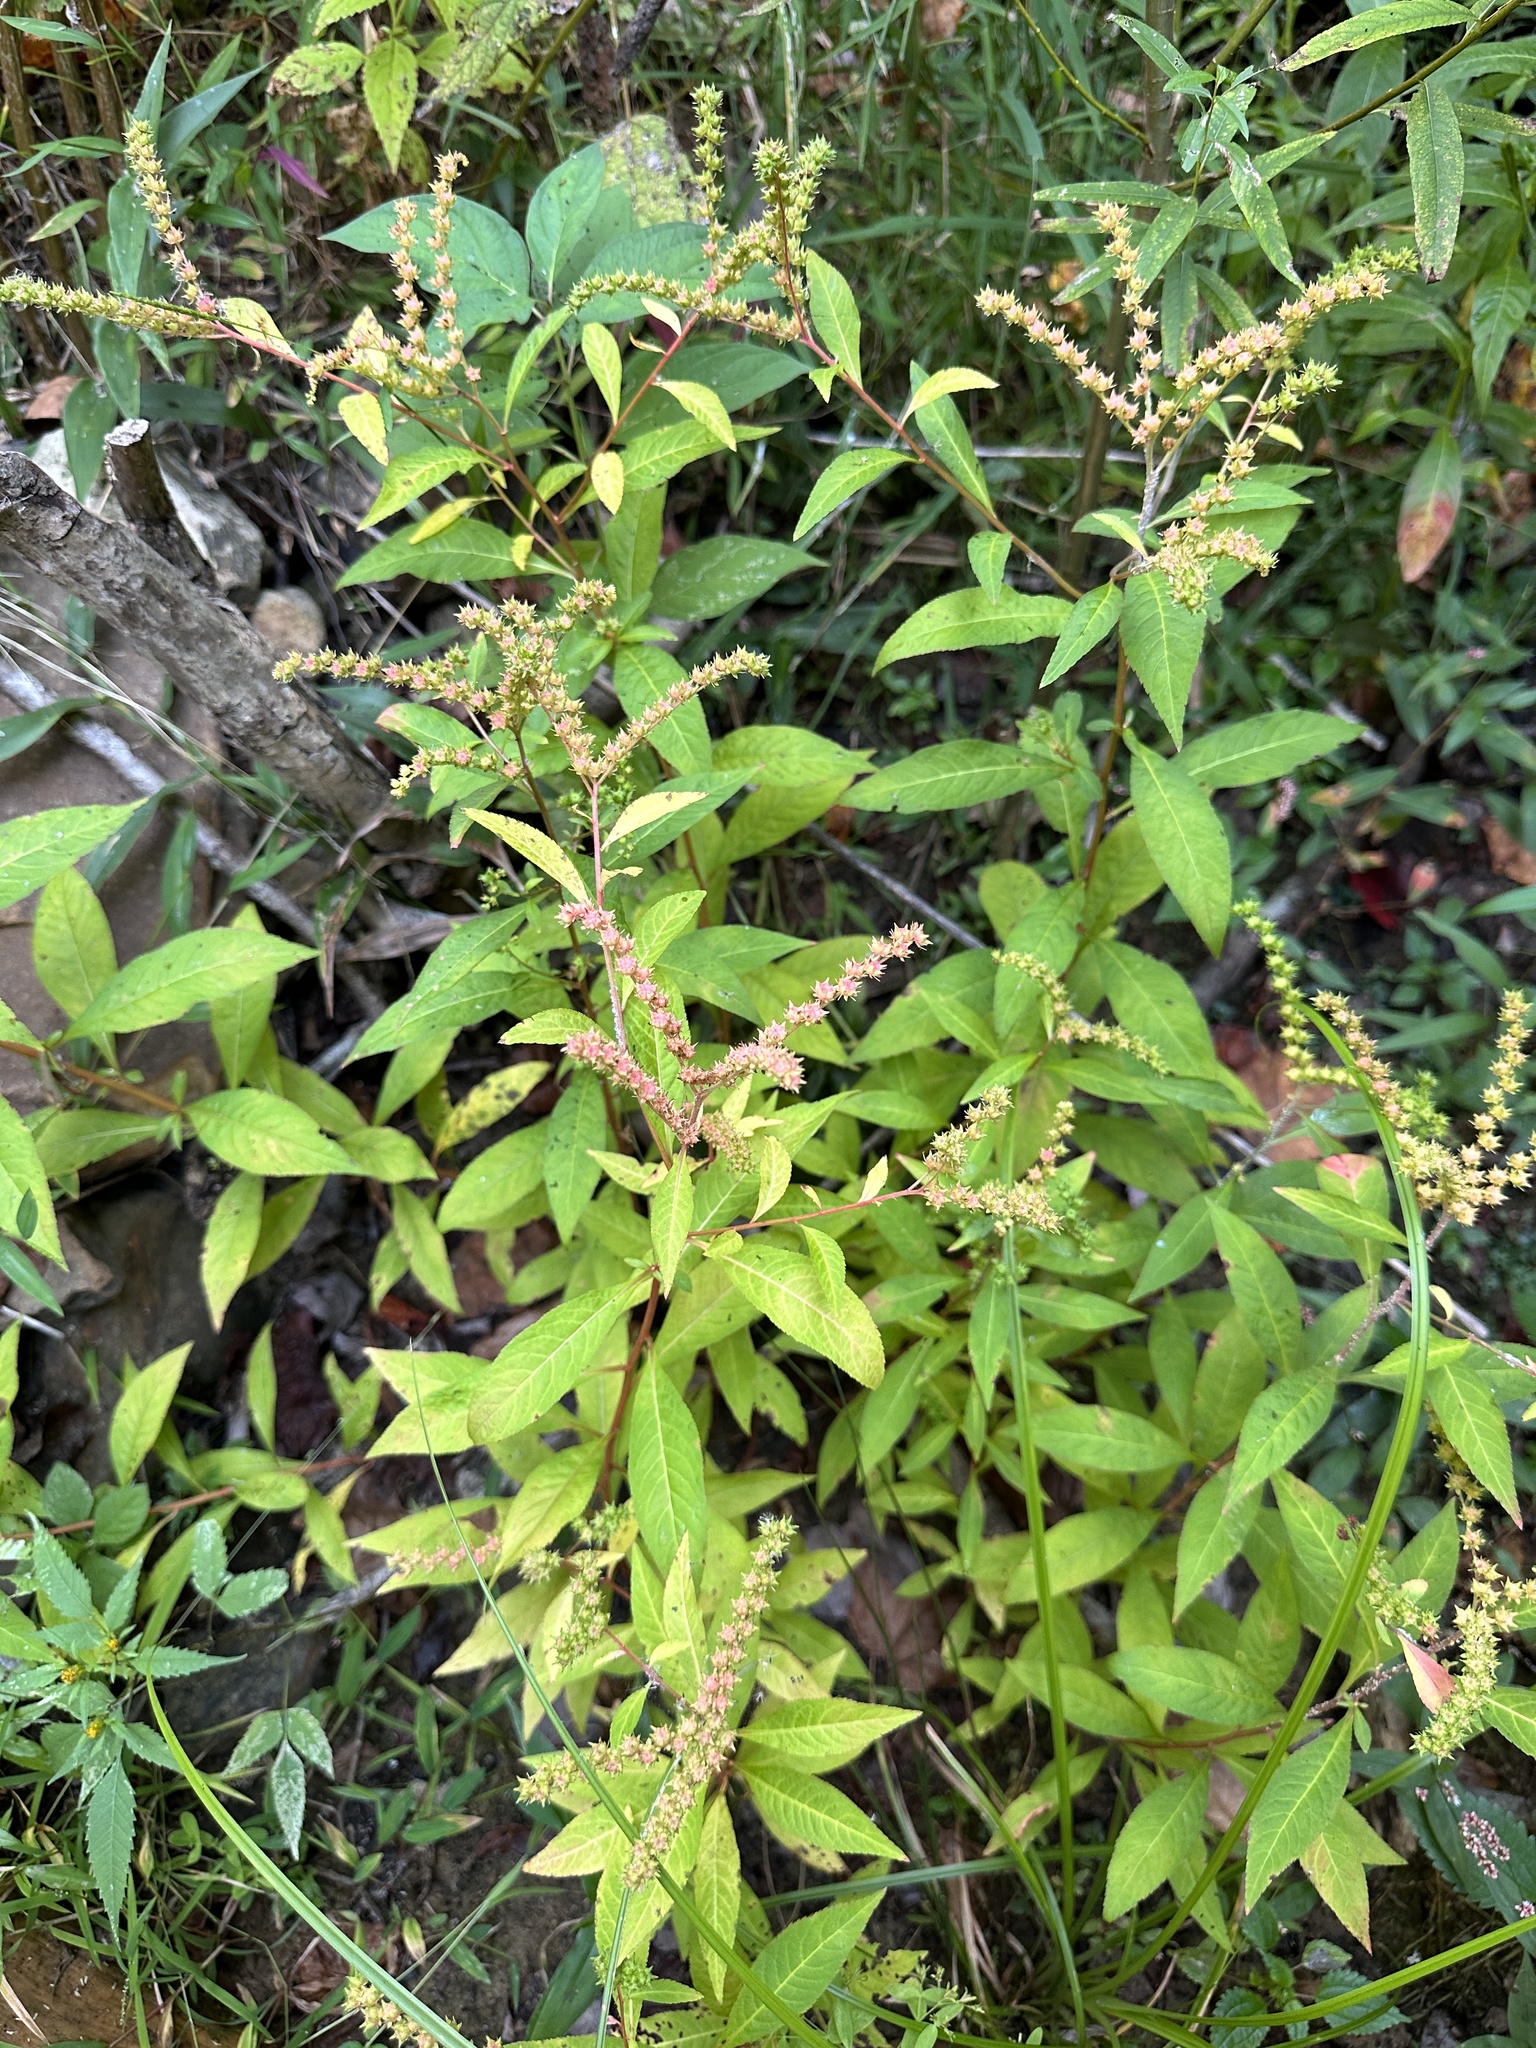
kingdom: Plantae
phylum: Tracheophyta
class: Magnoliopsida
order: Saxifragales
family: Penthoraceae
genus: Penthorum
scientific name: Penthorum sedoides
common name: Ditch stonecrop
